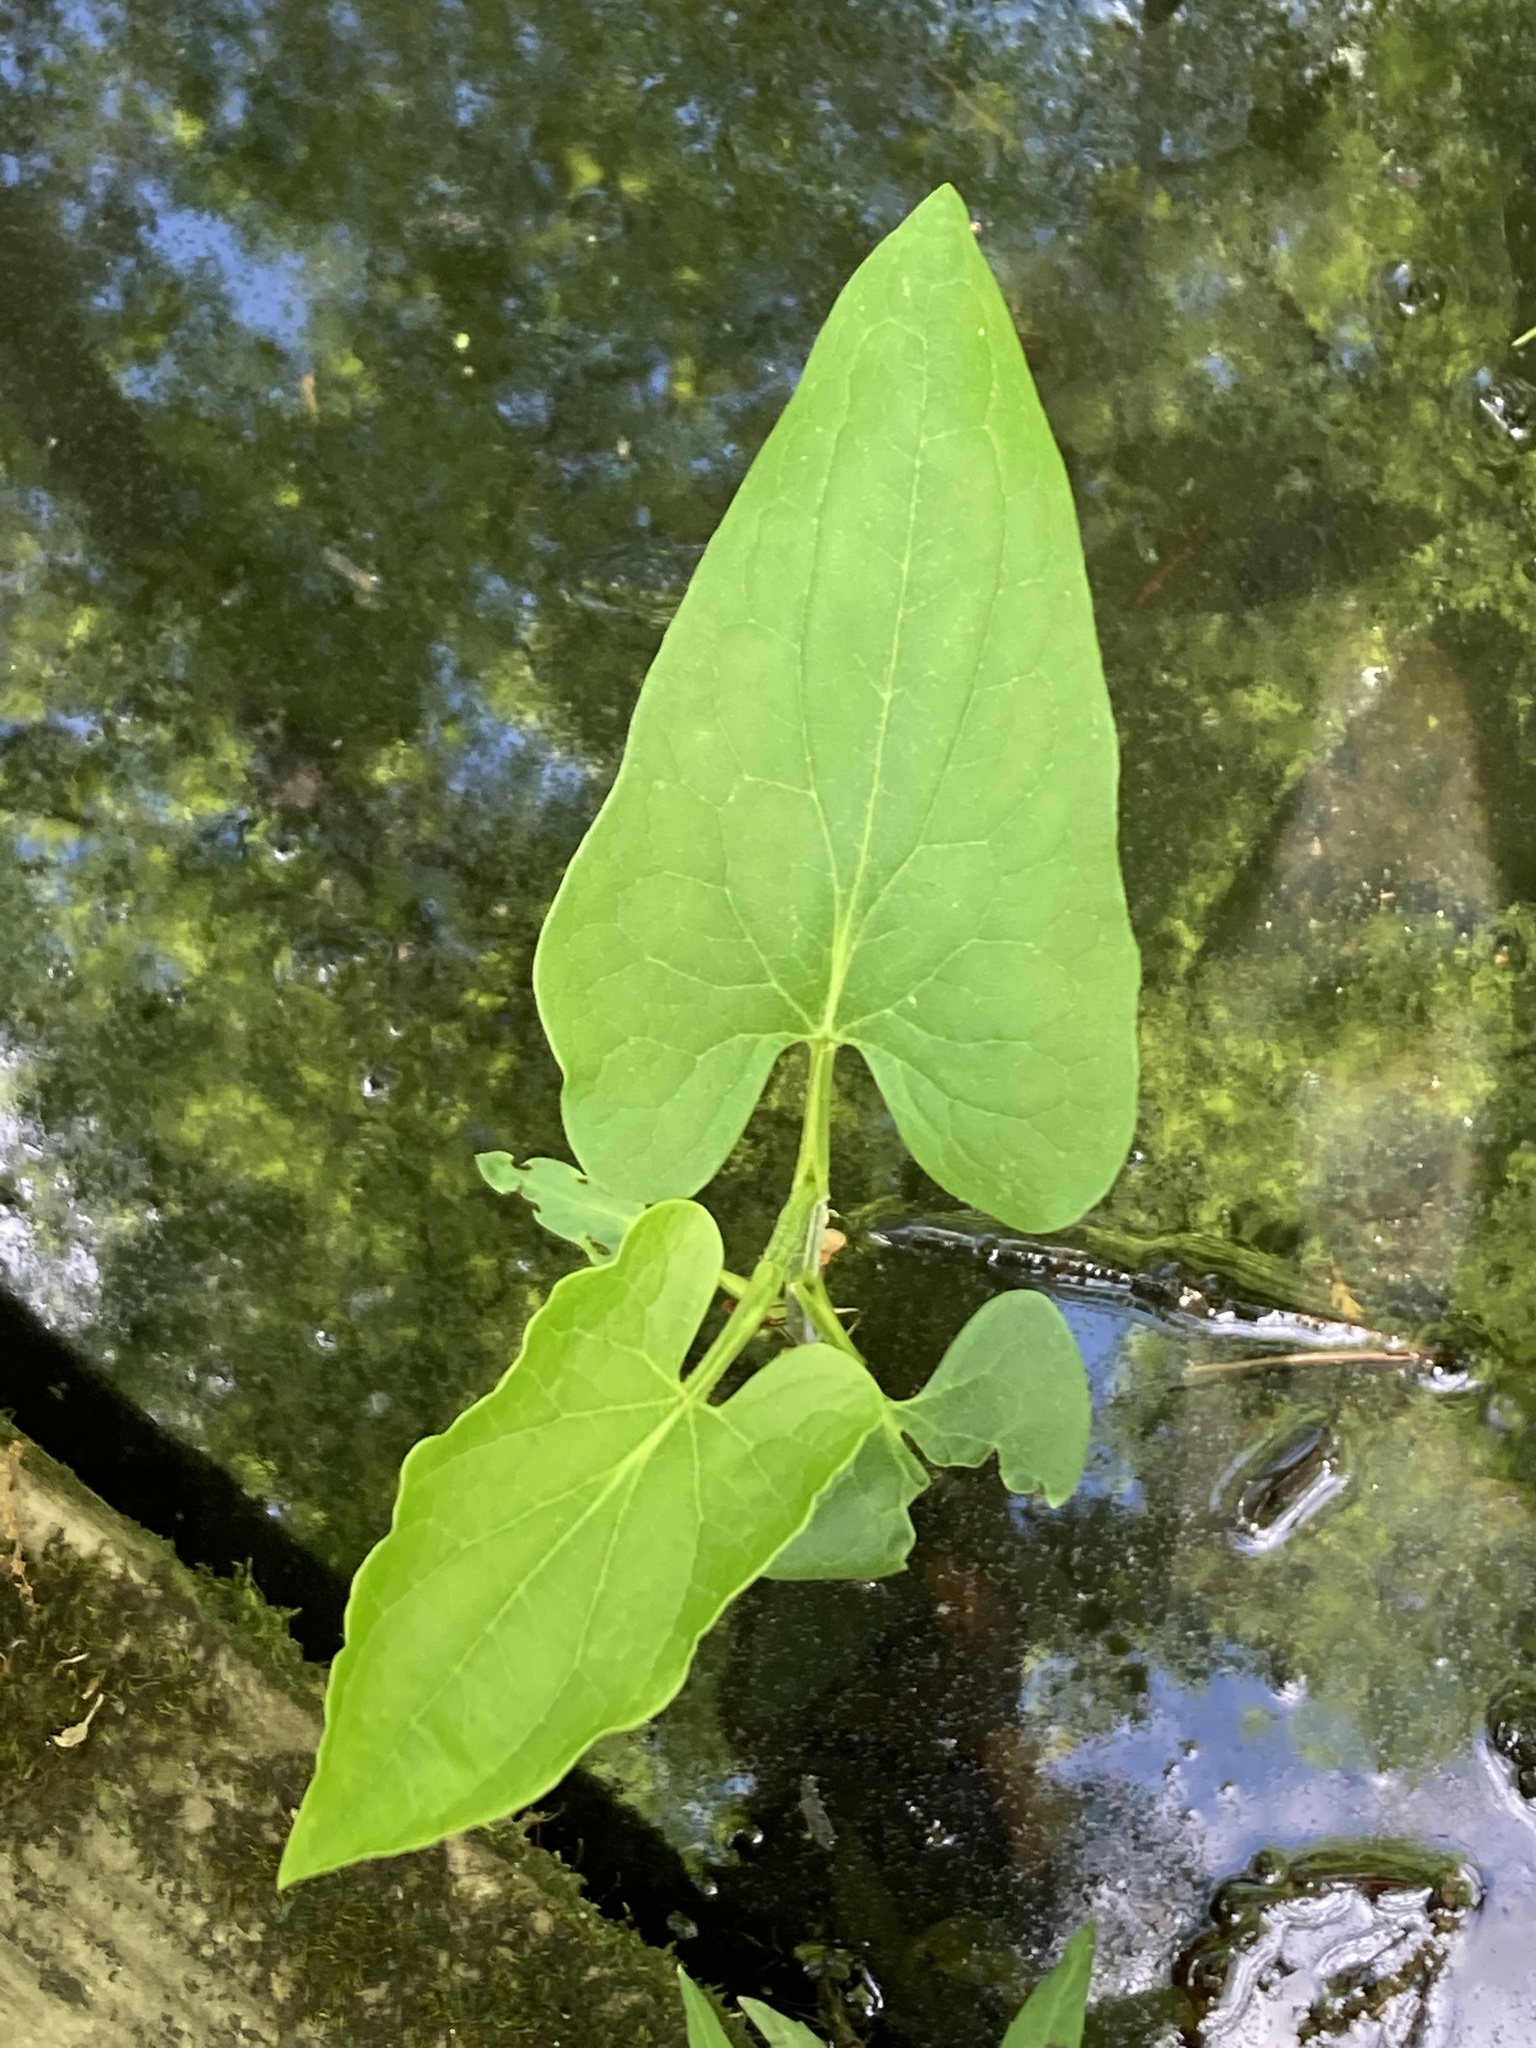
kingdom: Plantae
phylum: Tracheophyta
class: Magnoliopsida
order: Piperales
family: Saururaceae
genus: Saururus
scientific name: Saururus cernuus
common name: Lizard's-tail
